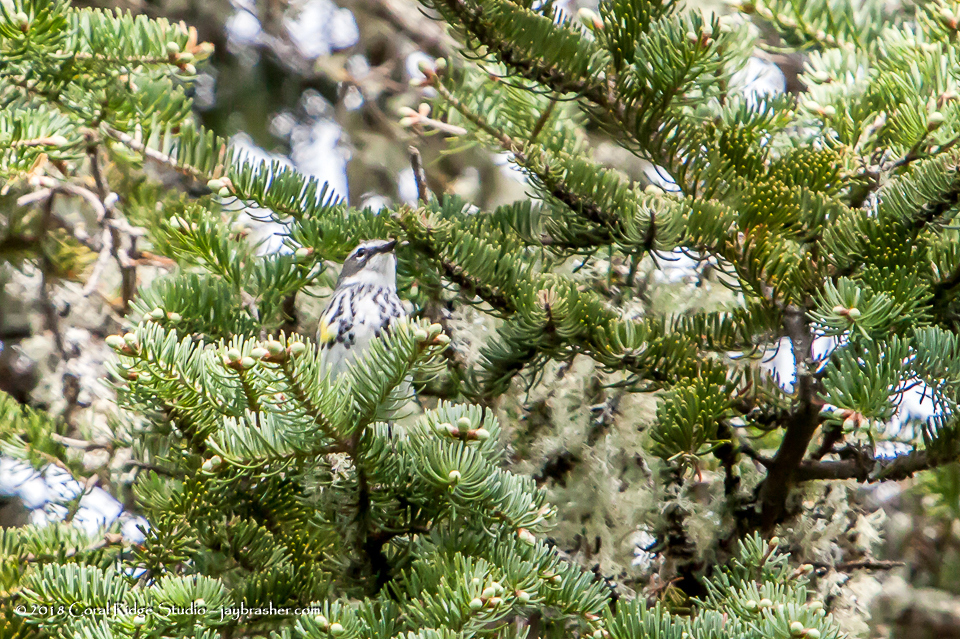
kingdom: Animalia
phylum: Chordata
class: Aves
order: Passeriformes
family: Parulidae
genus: Setophaga
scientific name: Setophaga coronata
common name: Myrtle warbler
